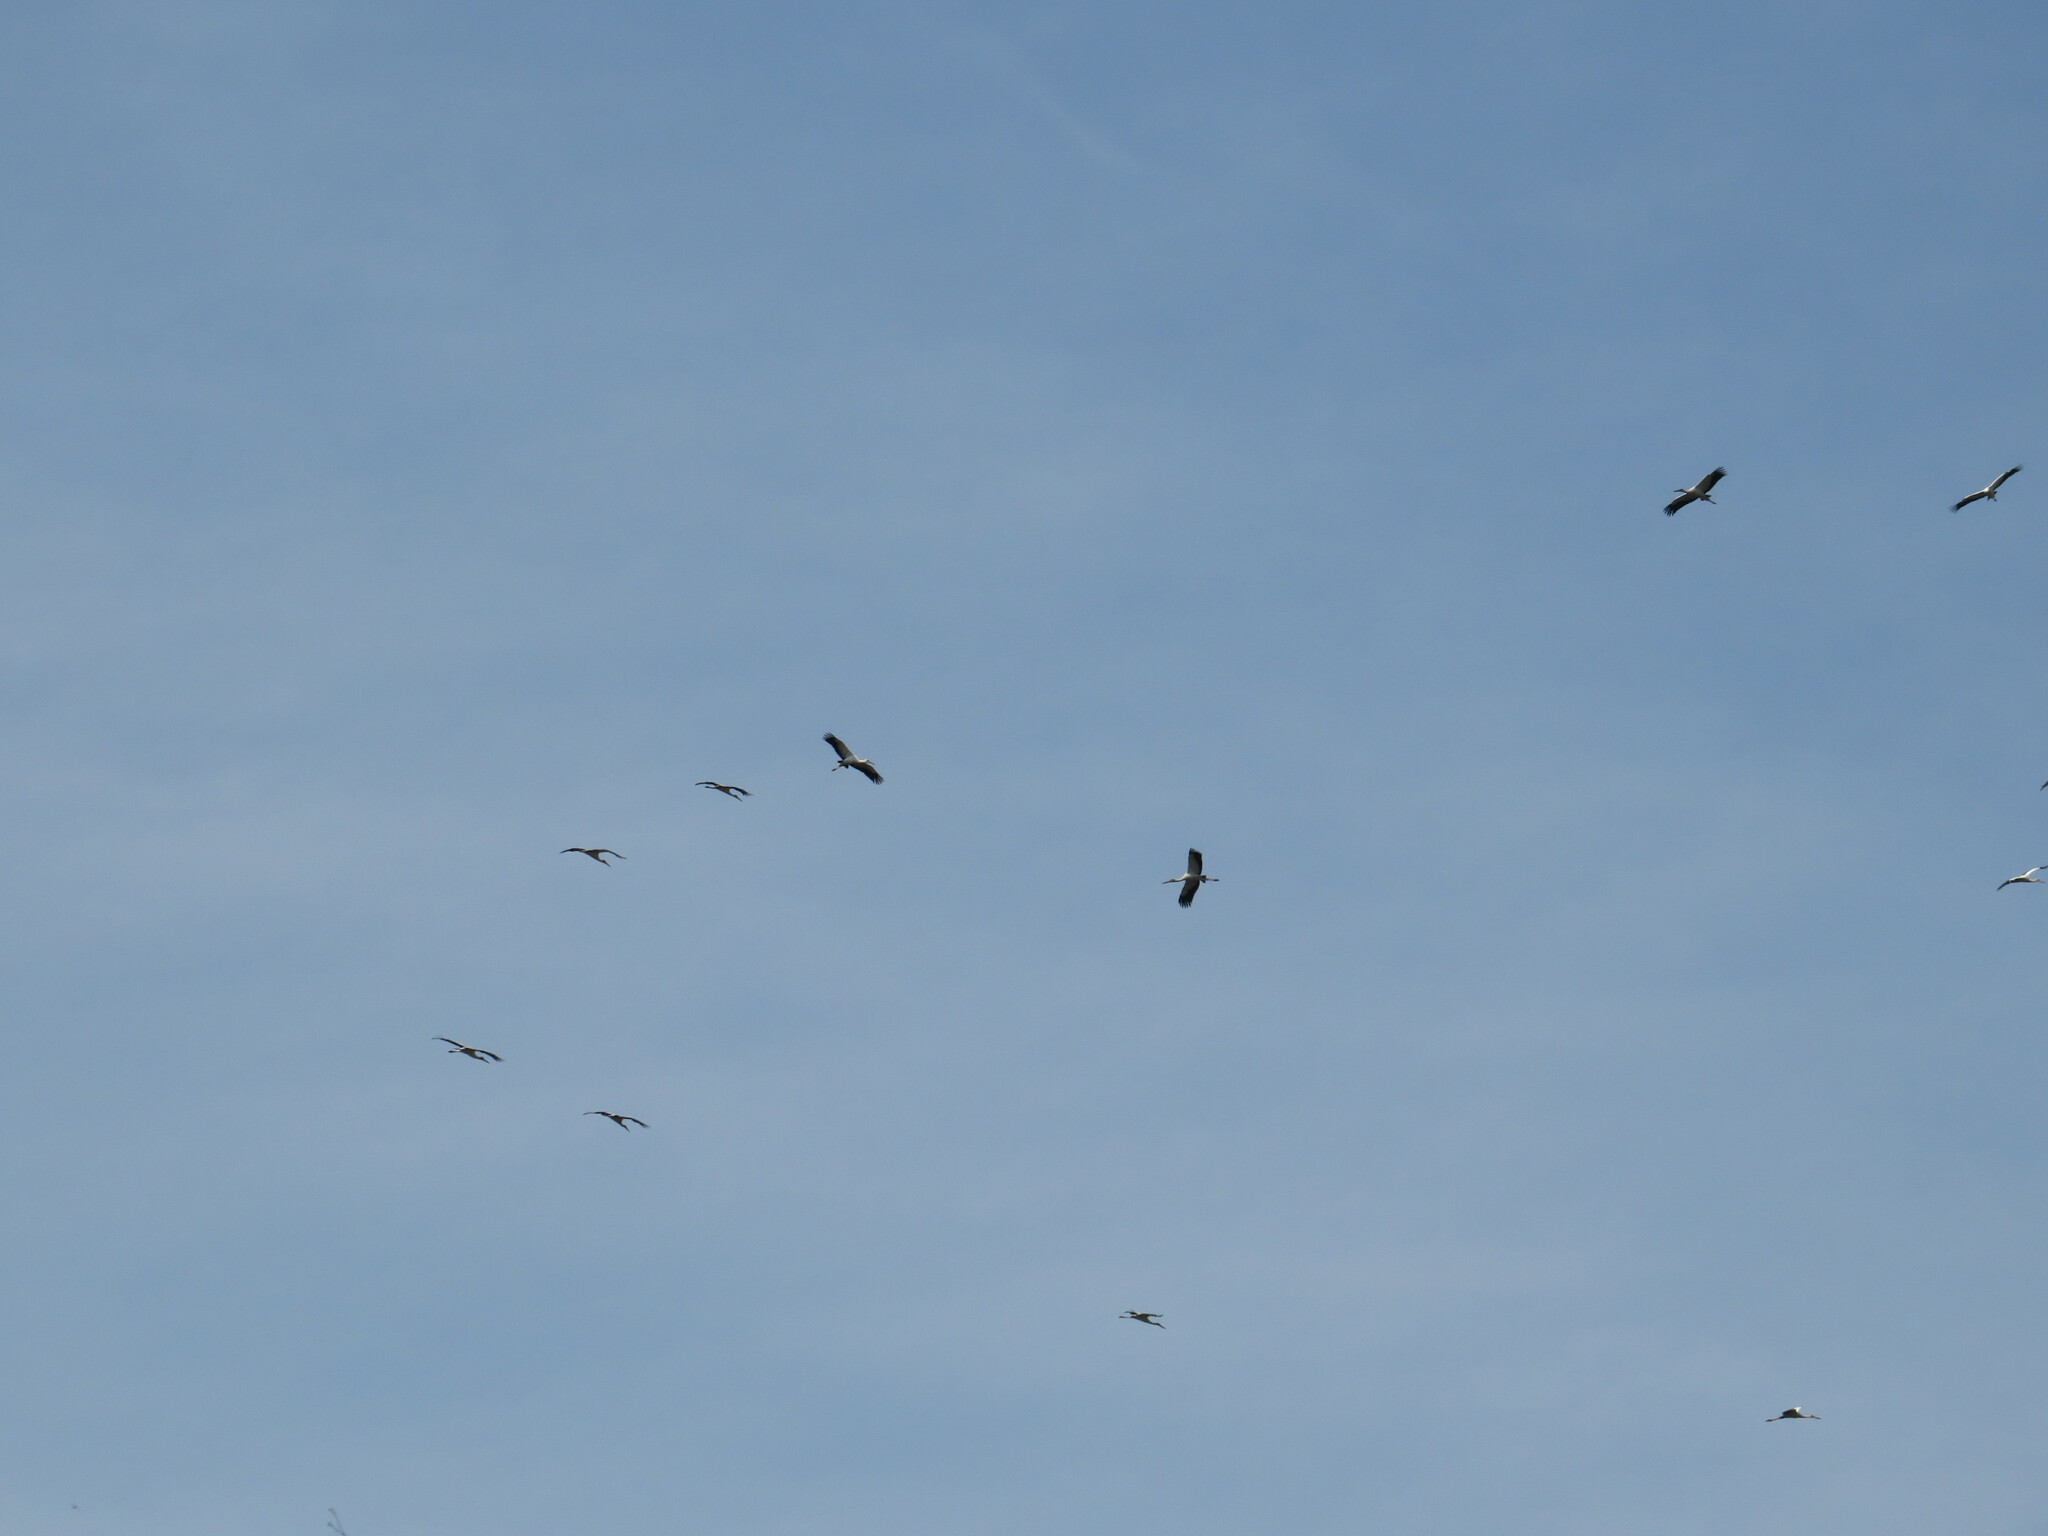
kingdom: Animalia
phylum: Chordata
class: Aves
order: Ciconiiformes
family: Ciconiidae
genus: Ciconia
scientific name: Ciconia maguari
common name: Maguari stork
